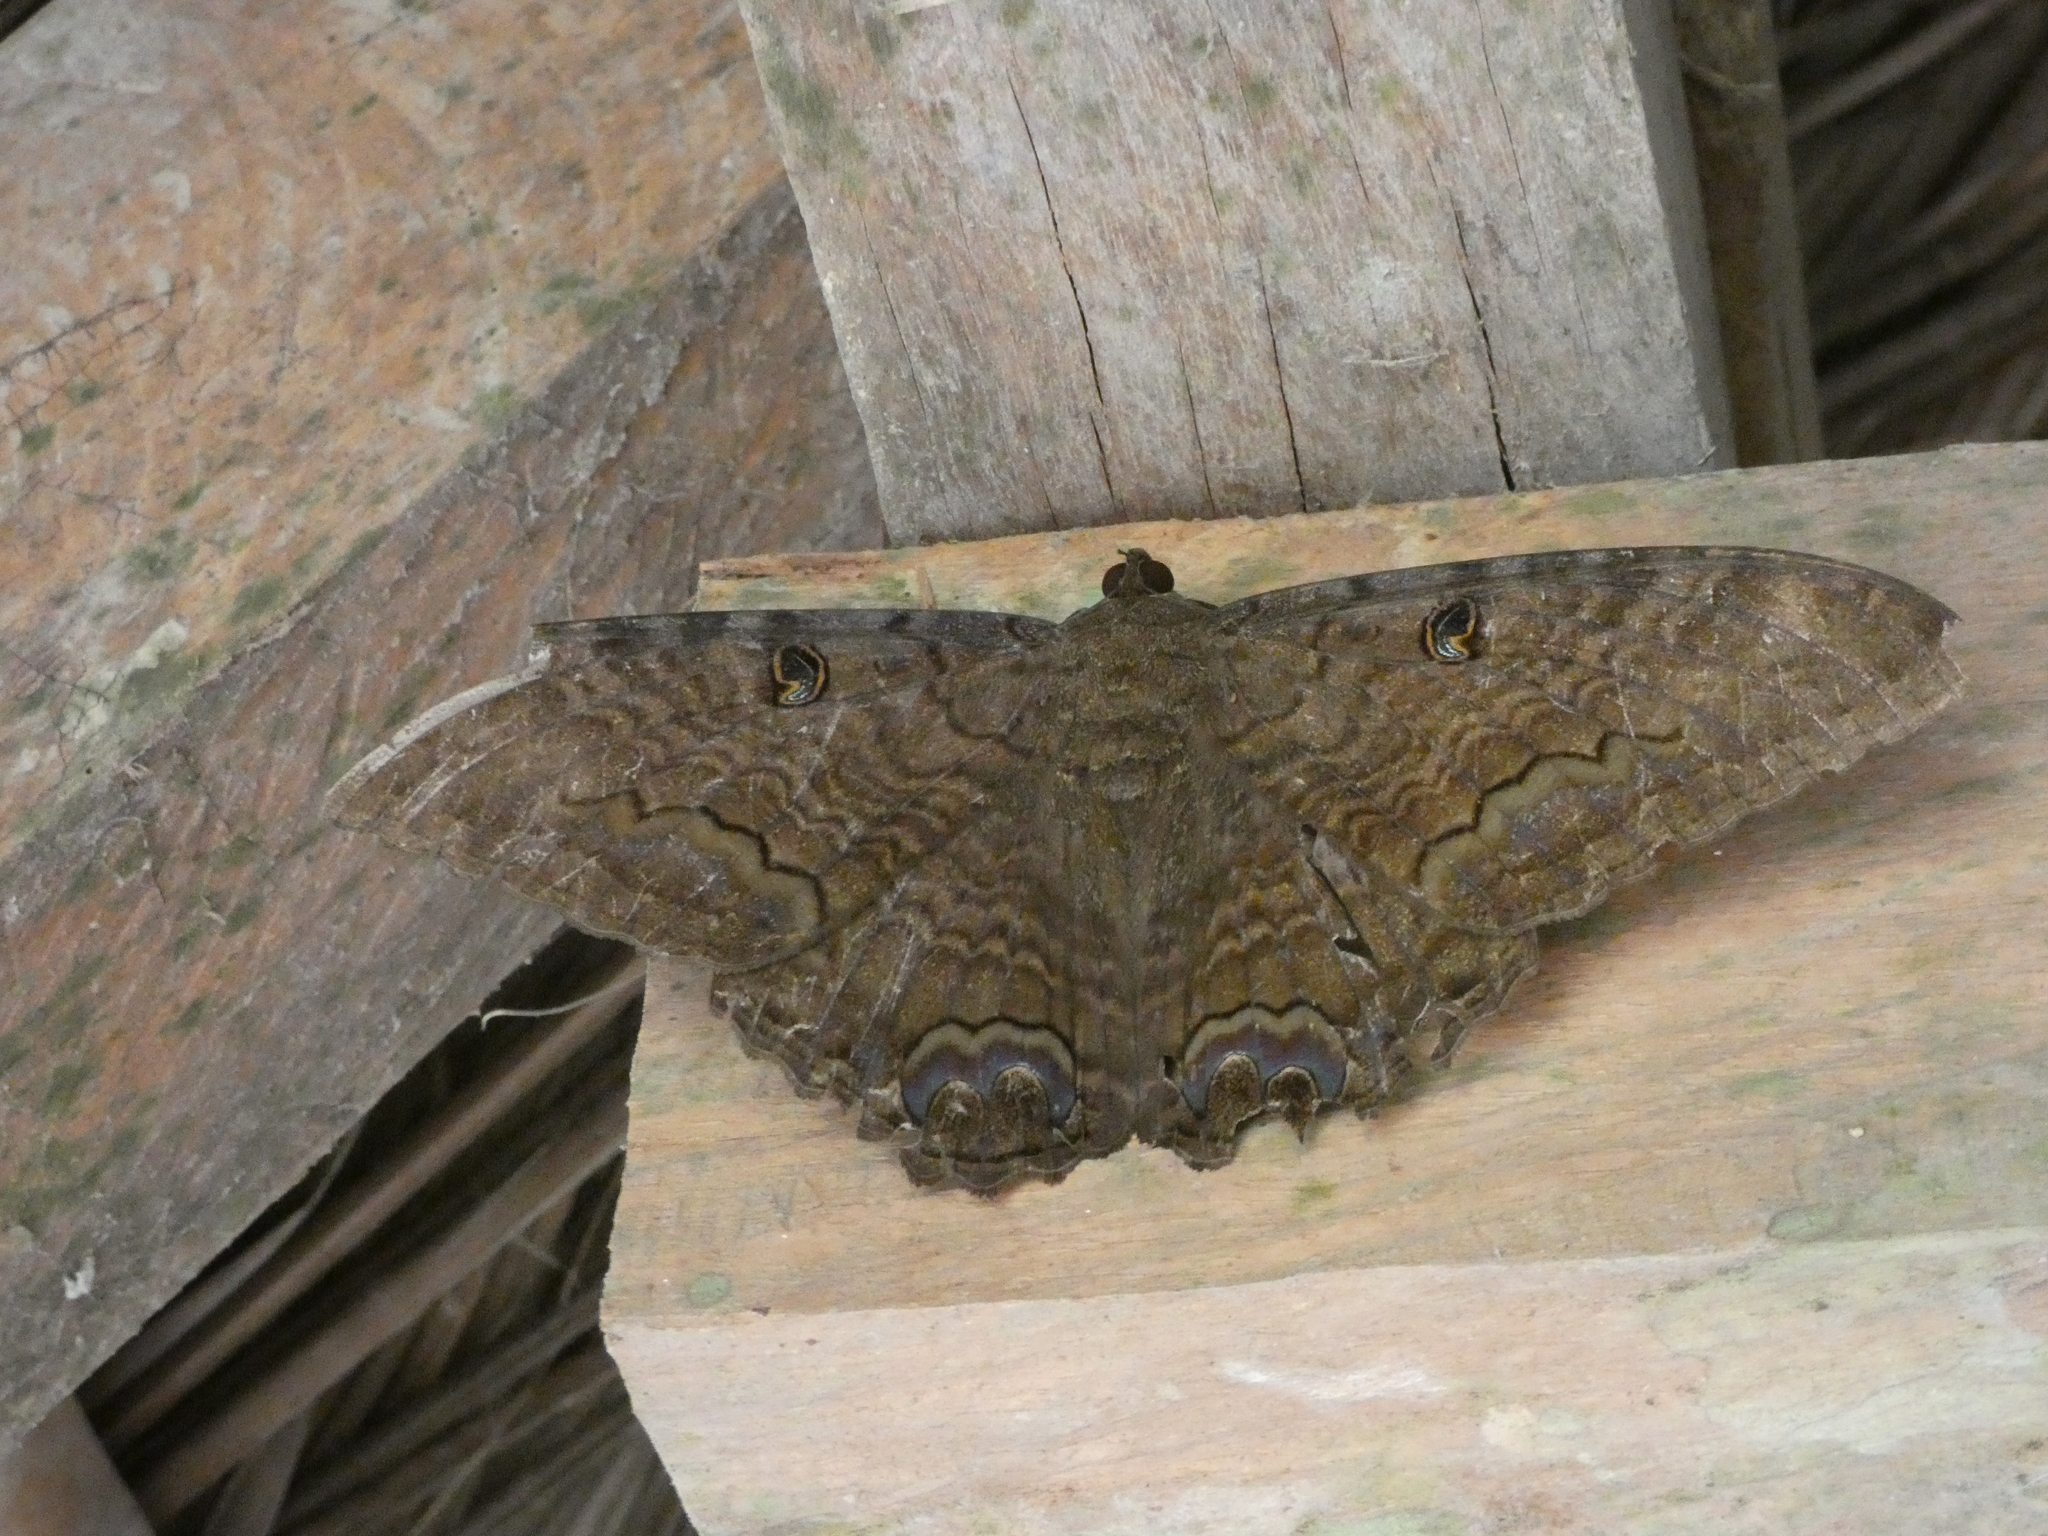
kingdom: Animalia
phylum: Arthropoda
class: Insecta
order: Lepidoptera
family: Erebidae
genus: Ascalapha
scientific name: Ascalapha odorata
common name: Black witch
